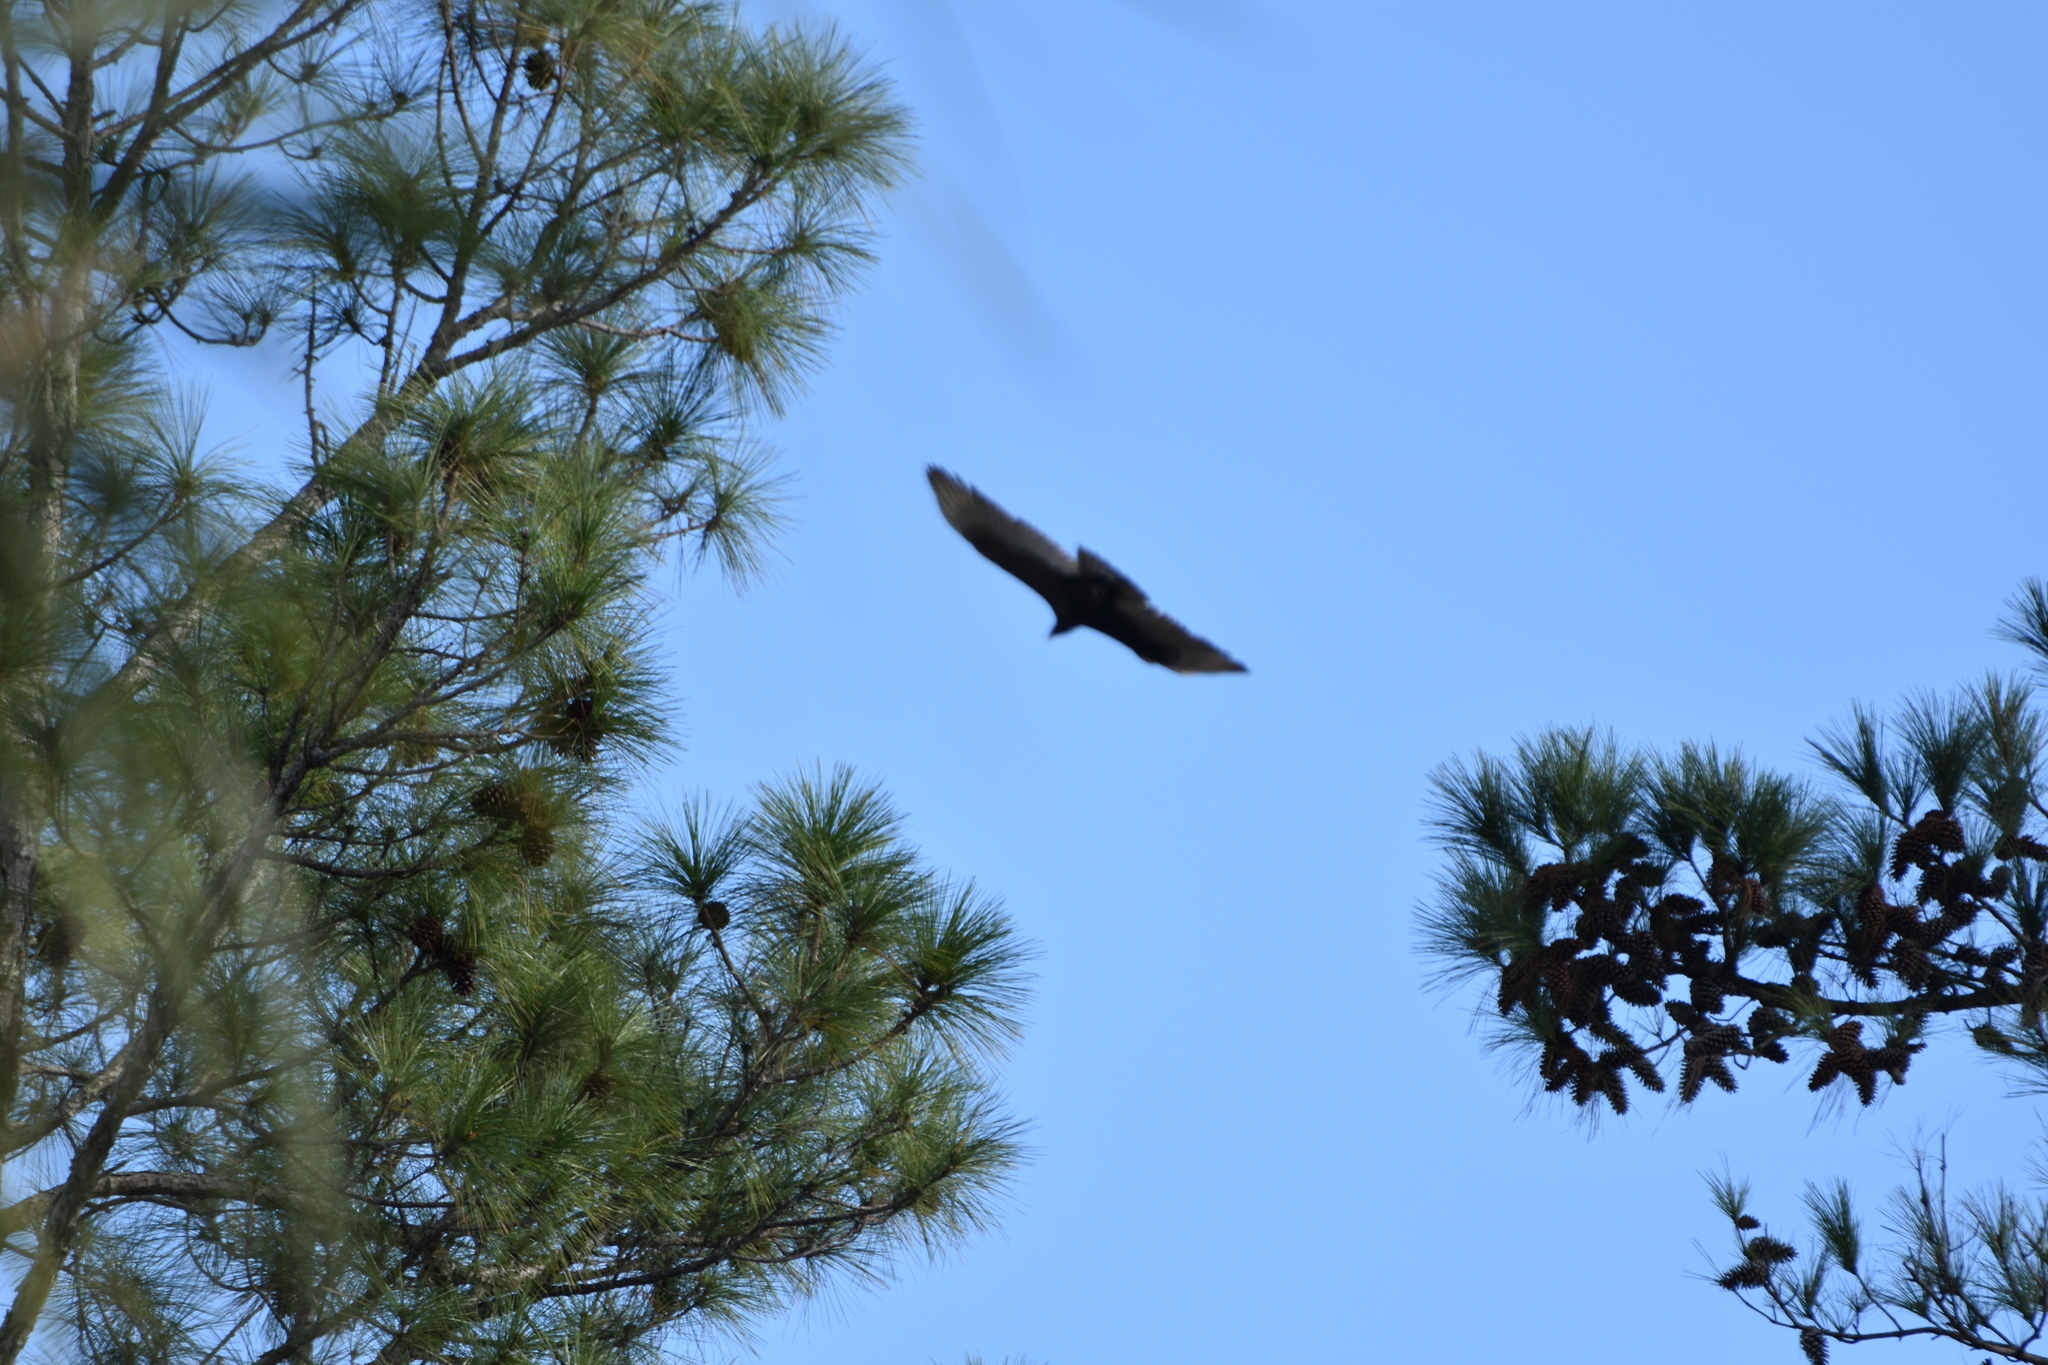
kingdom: Animalia
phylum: Chordata
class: Aves
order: Accipitriformes
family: Cathartidae
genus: Cathartes
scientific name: Cathartes aura
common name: Turkey vulture
